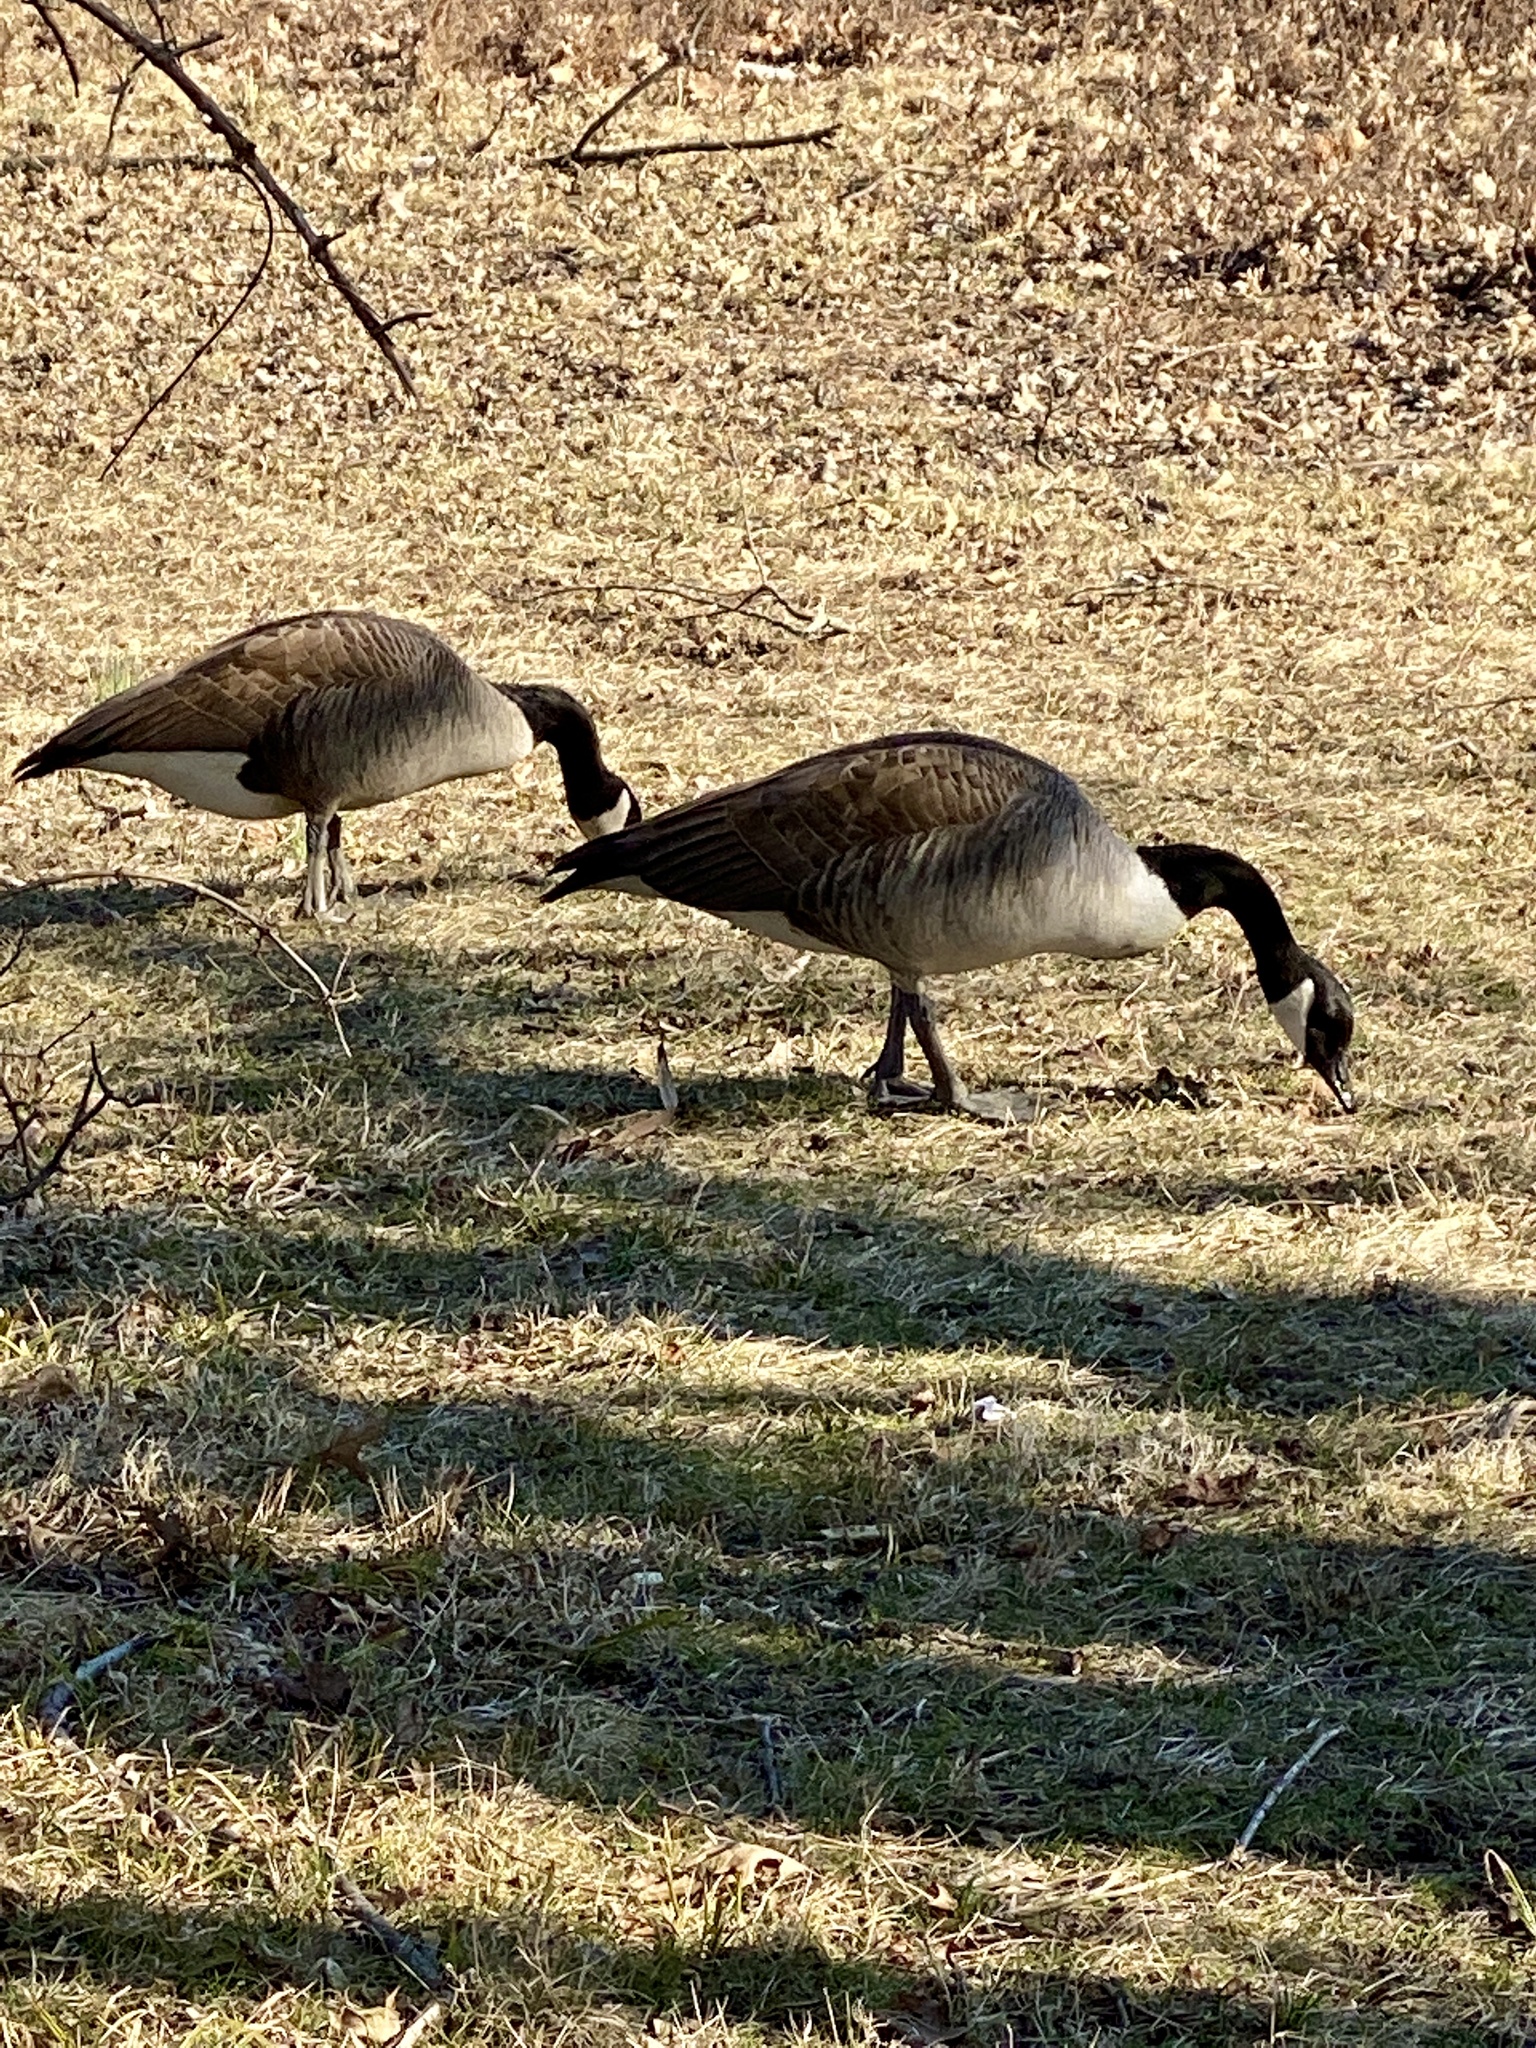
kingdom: Animalia
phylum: Chordata
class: Aves
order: Anseriformes
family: Anatidae
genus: Branta
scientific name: Branta canadensis
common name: Canada goose
